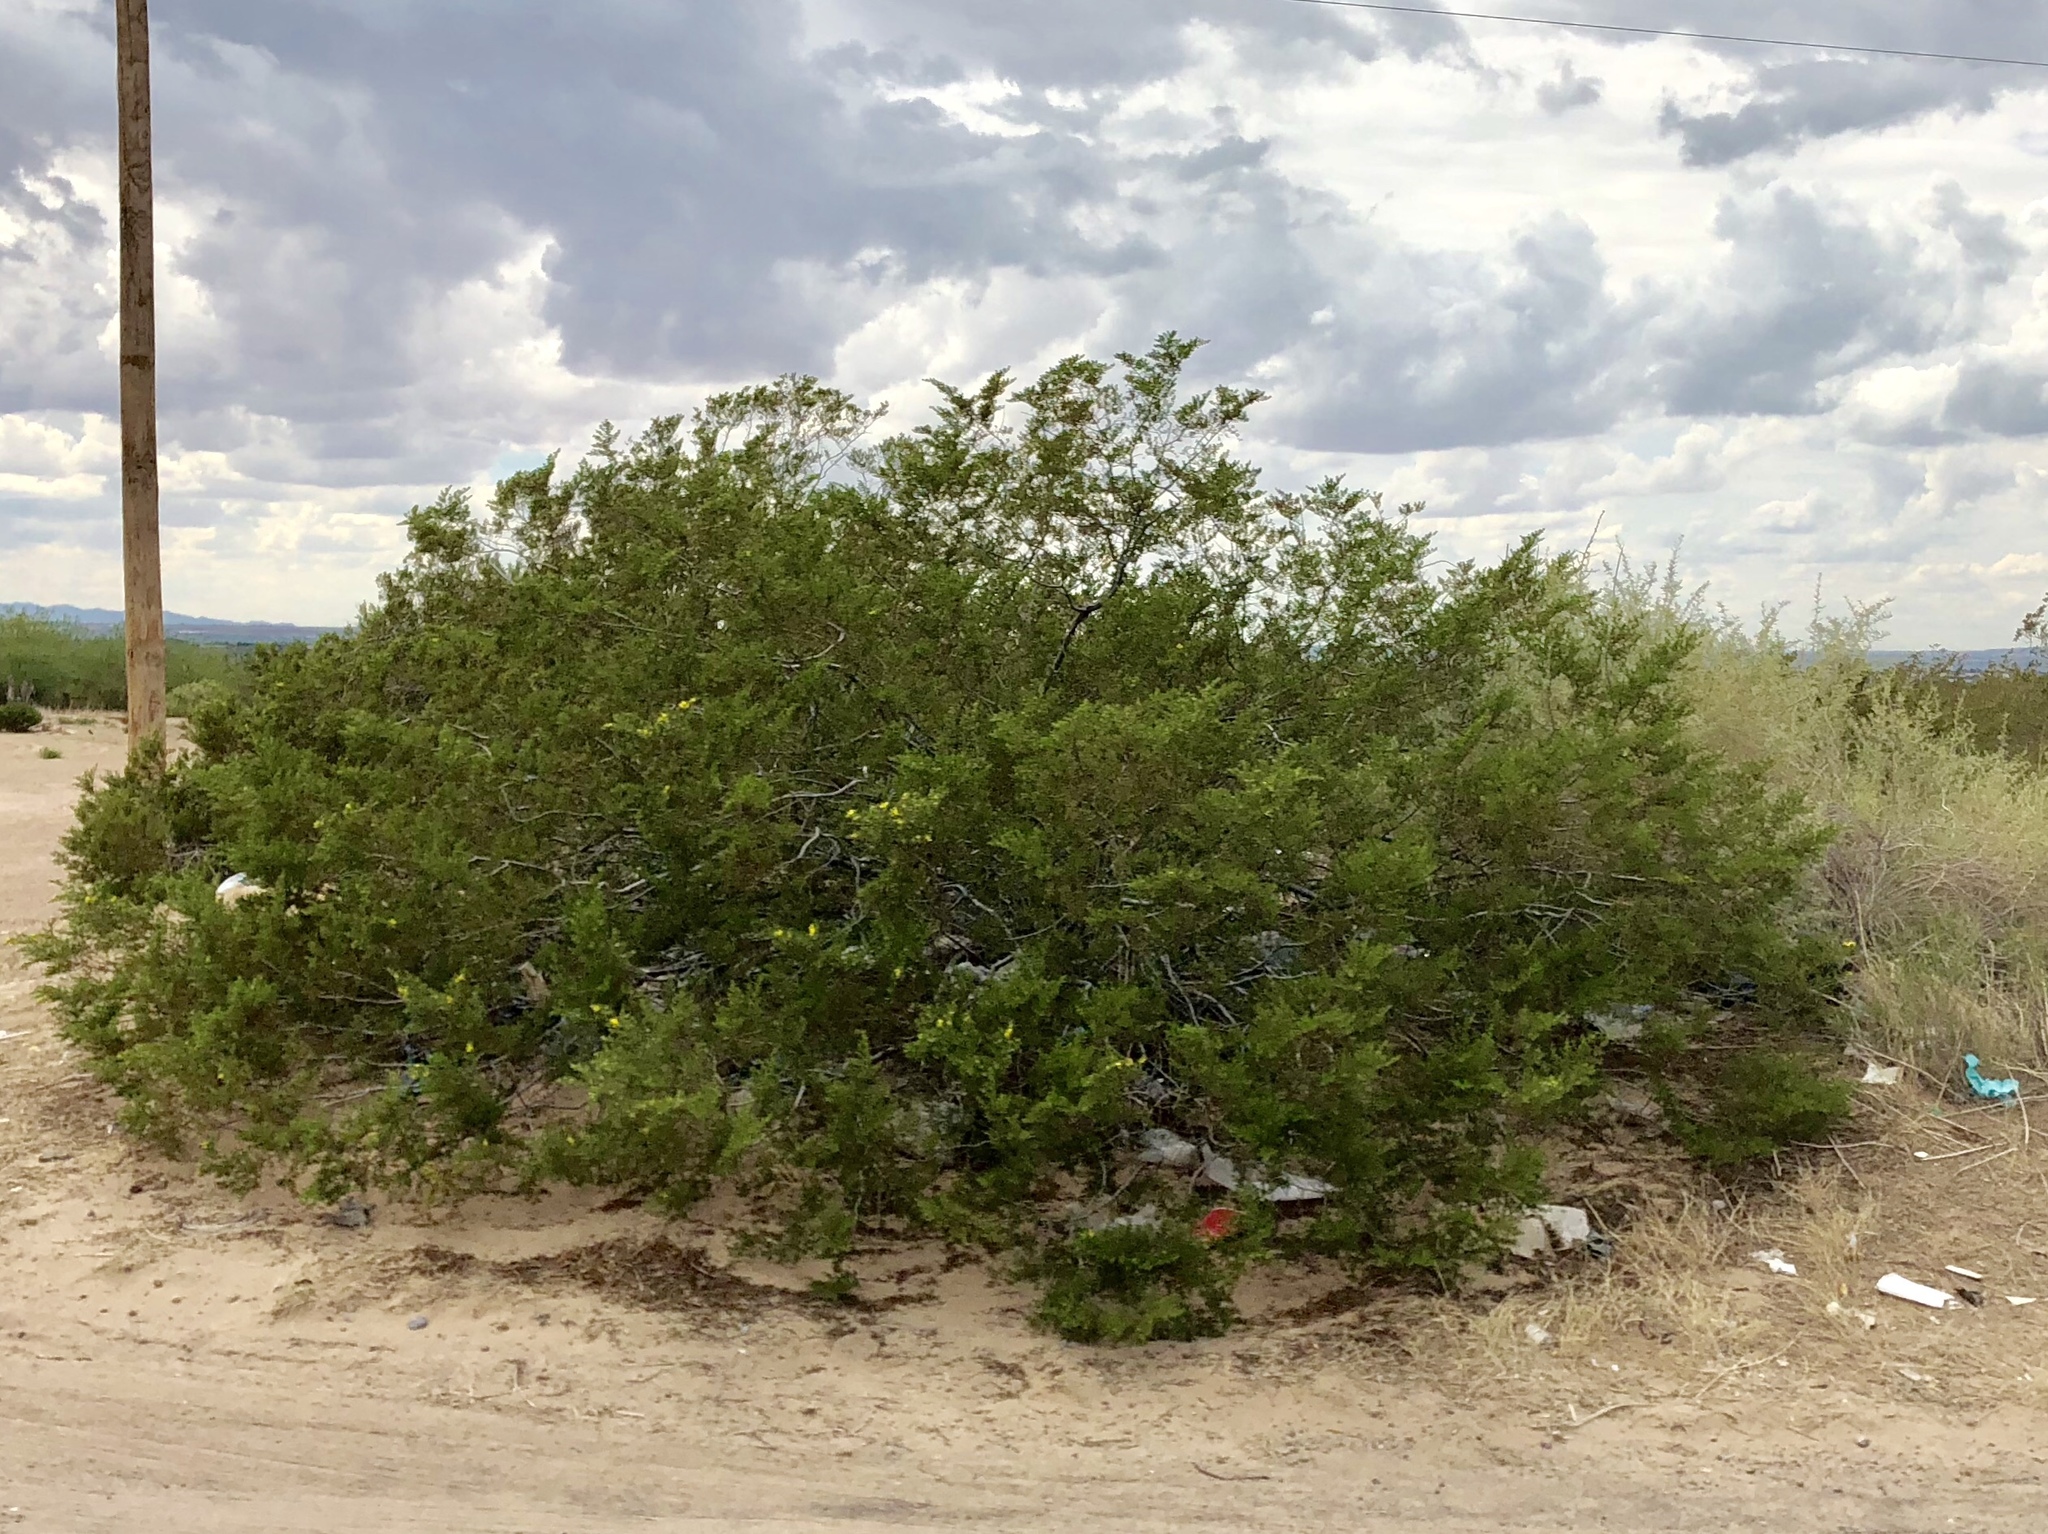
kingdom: Plantae
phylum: Tracheophyta
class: Magnoliopsida
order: Zygophyllales
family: Zygophyllaceae
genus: Larrea
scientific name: Larrea tridentata
